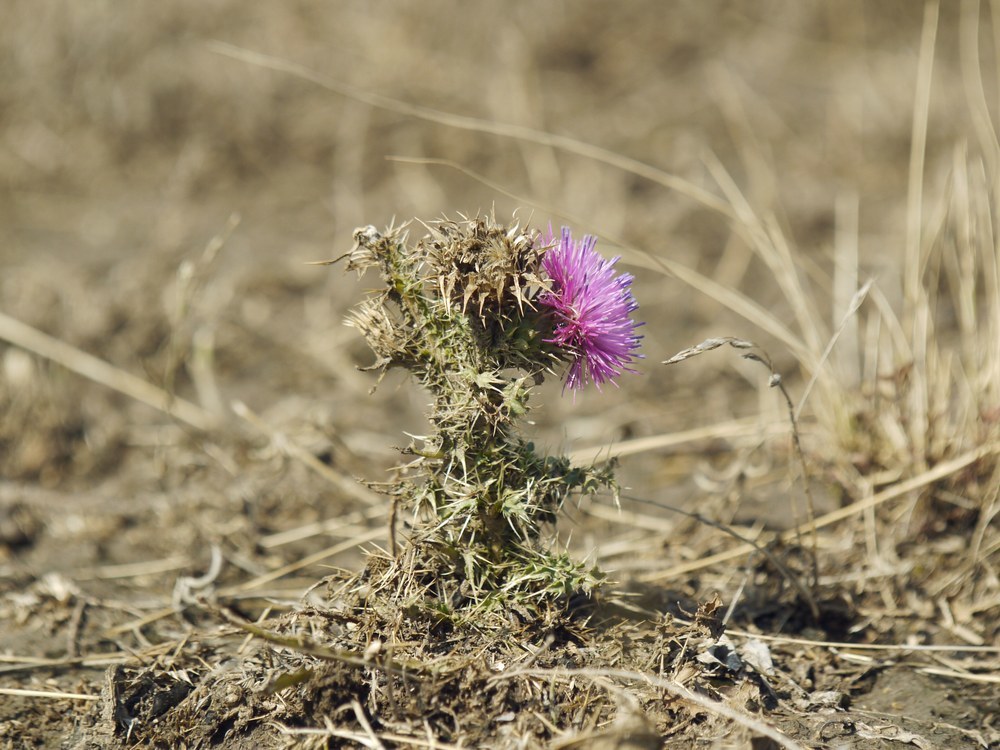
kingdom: Plantae
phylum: Tracheophyta
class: Magnoliopsida
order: Asterales
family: Asteraceae
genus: Carduus
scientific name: Carduus acanthoides
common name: Plumeless thistle
